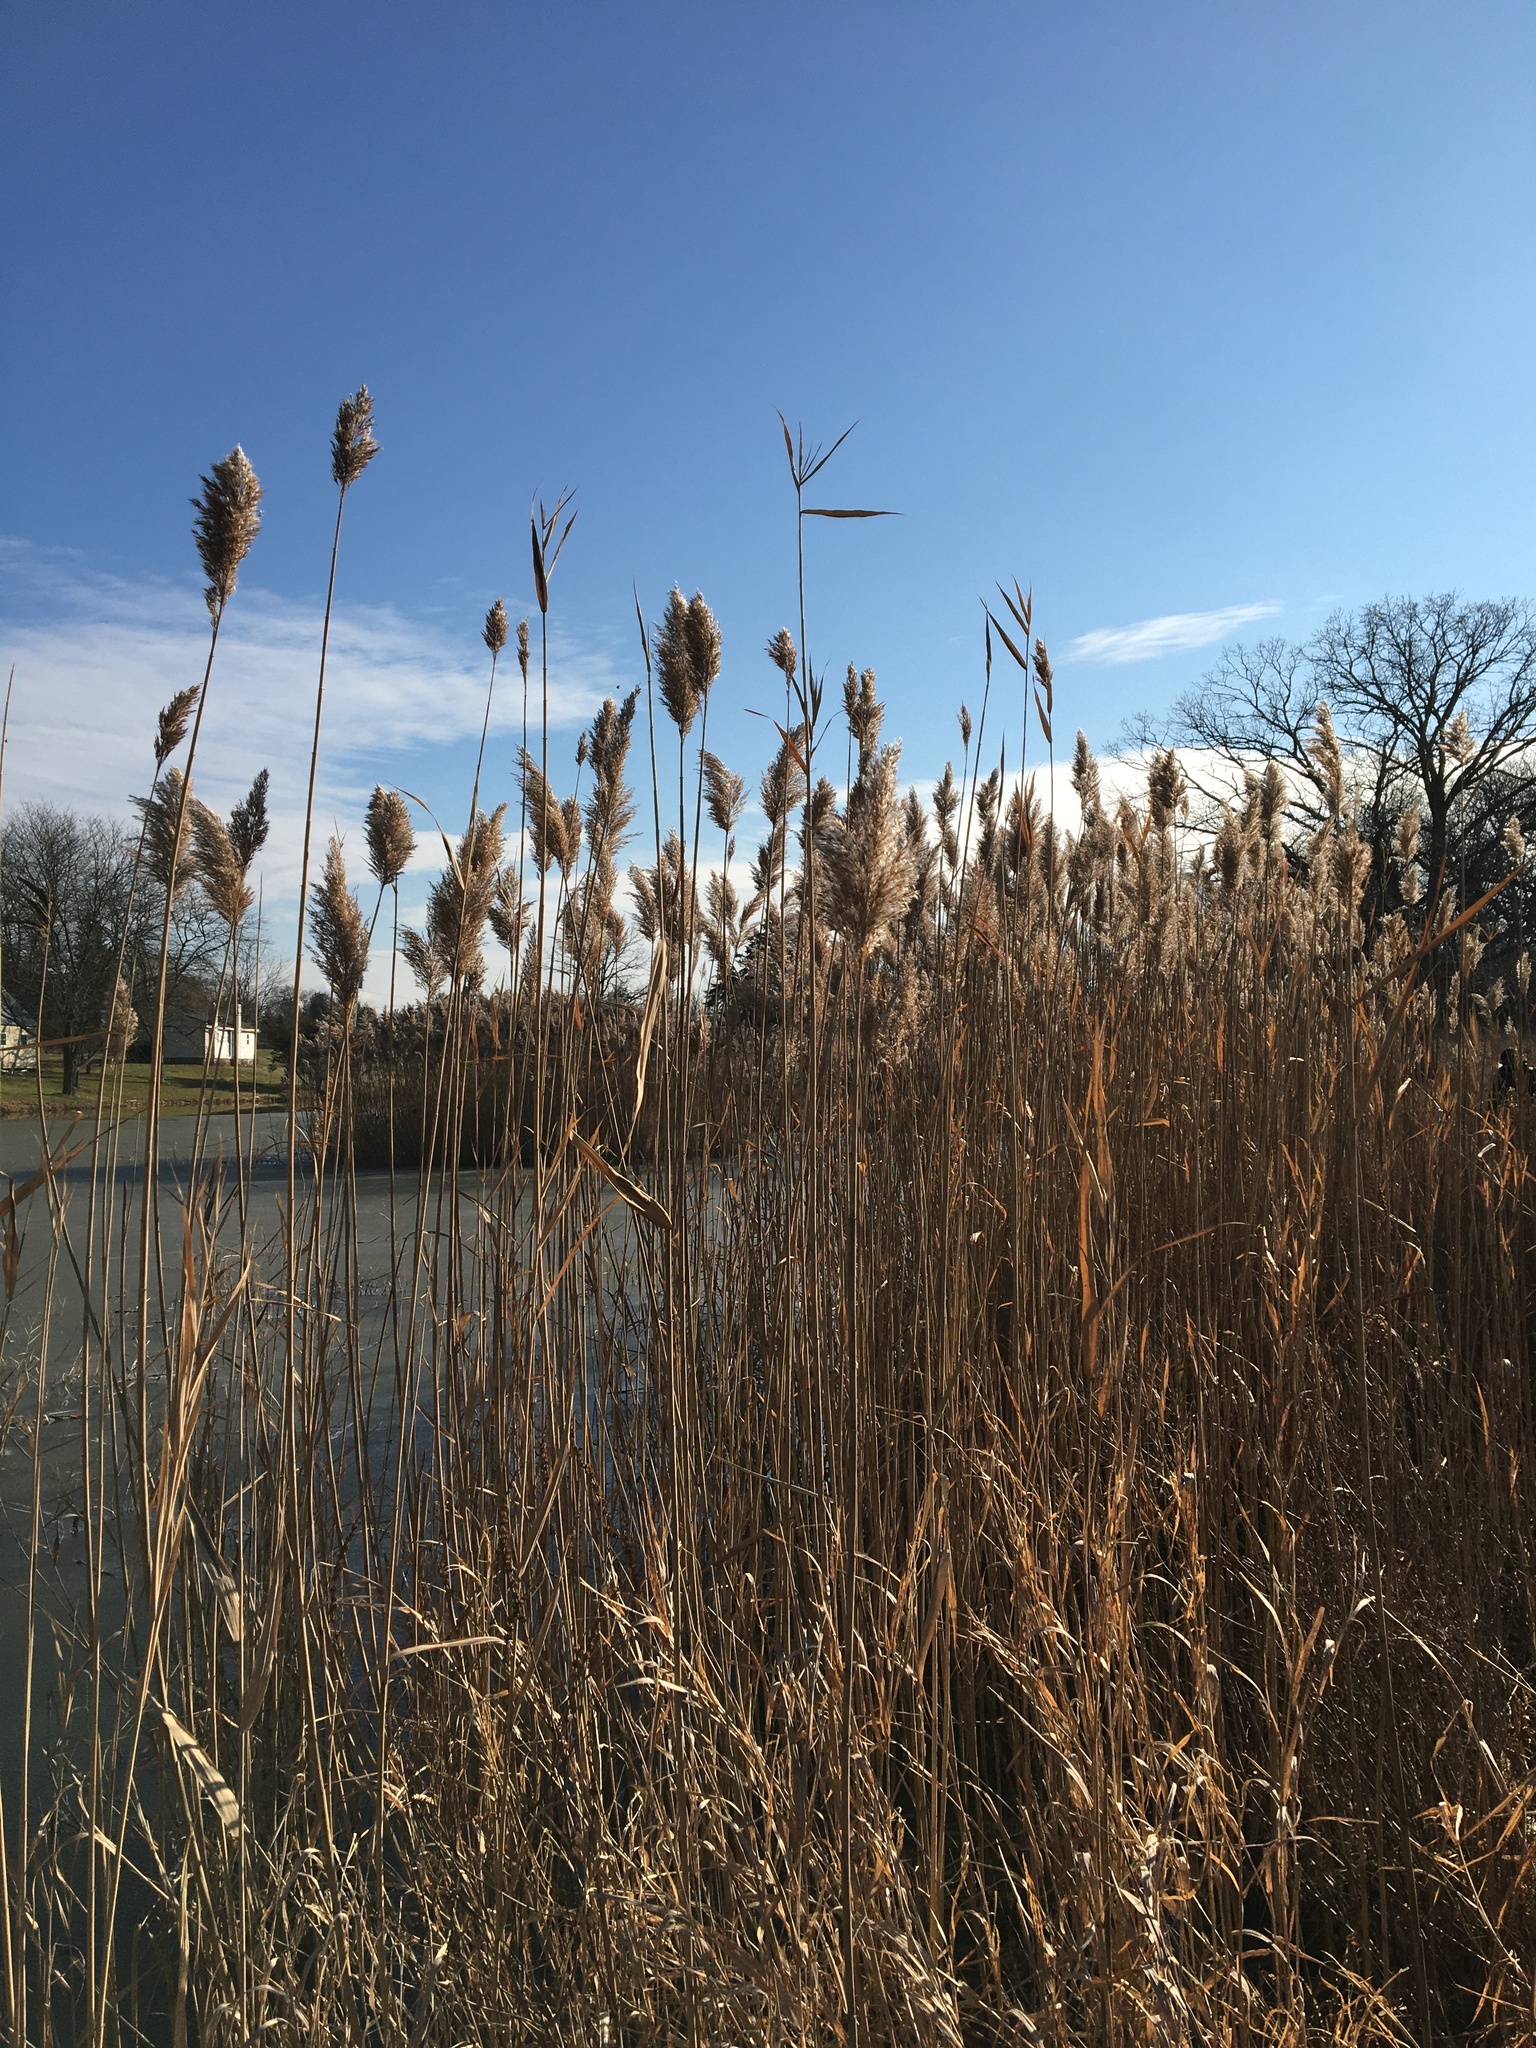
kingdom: Plantae
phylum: Tracheophyta
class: Liliopsida
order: Poales
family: Poaceae
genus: Phragmites
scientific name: Phragmites australis
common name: Common reed
